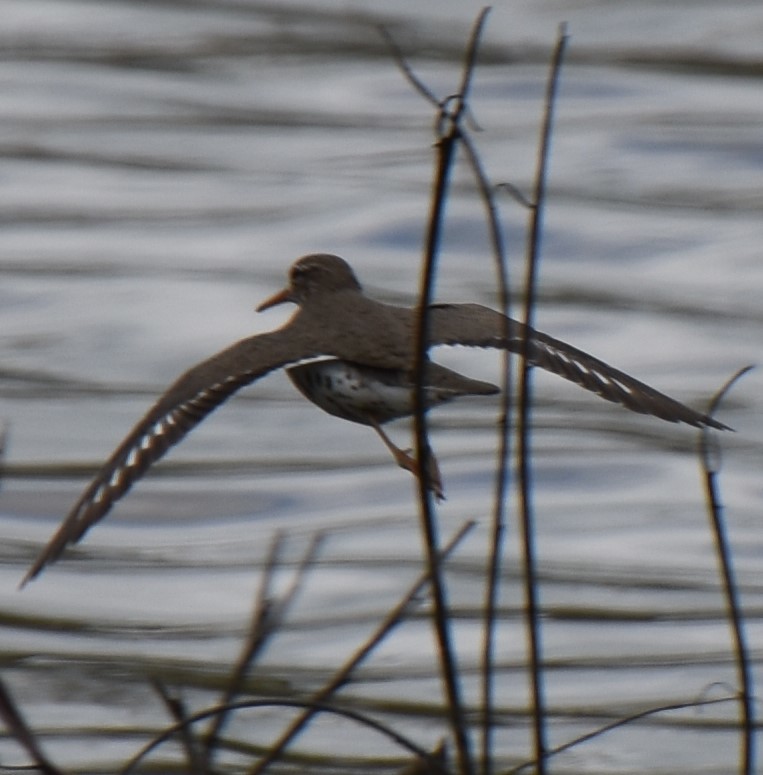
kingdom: Animalia
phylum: Chordata
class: Aves
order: Charadriiformes
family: Scolopacidae
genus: Actitis
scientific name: Actitis macularius
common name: Spotted sandpiper
